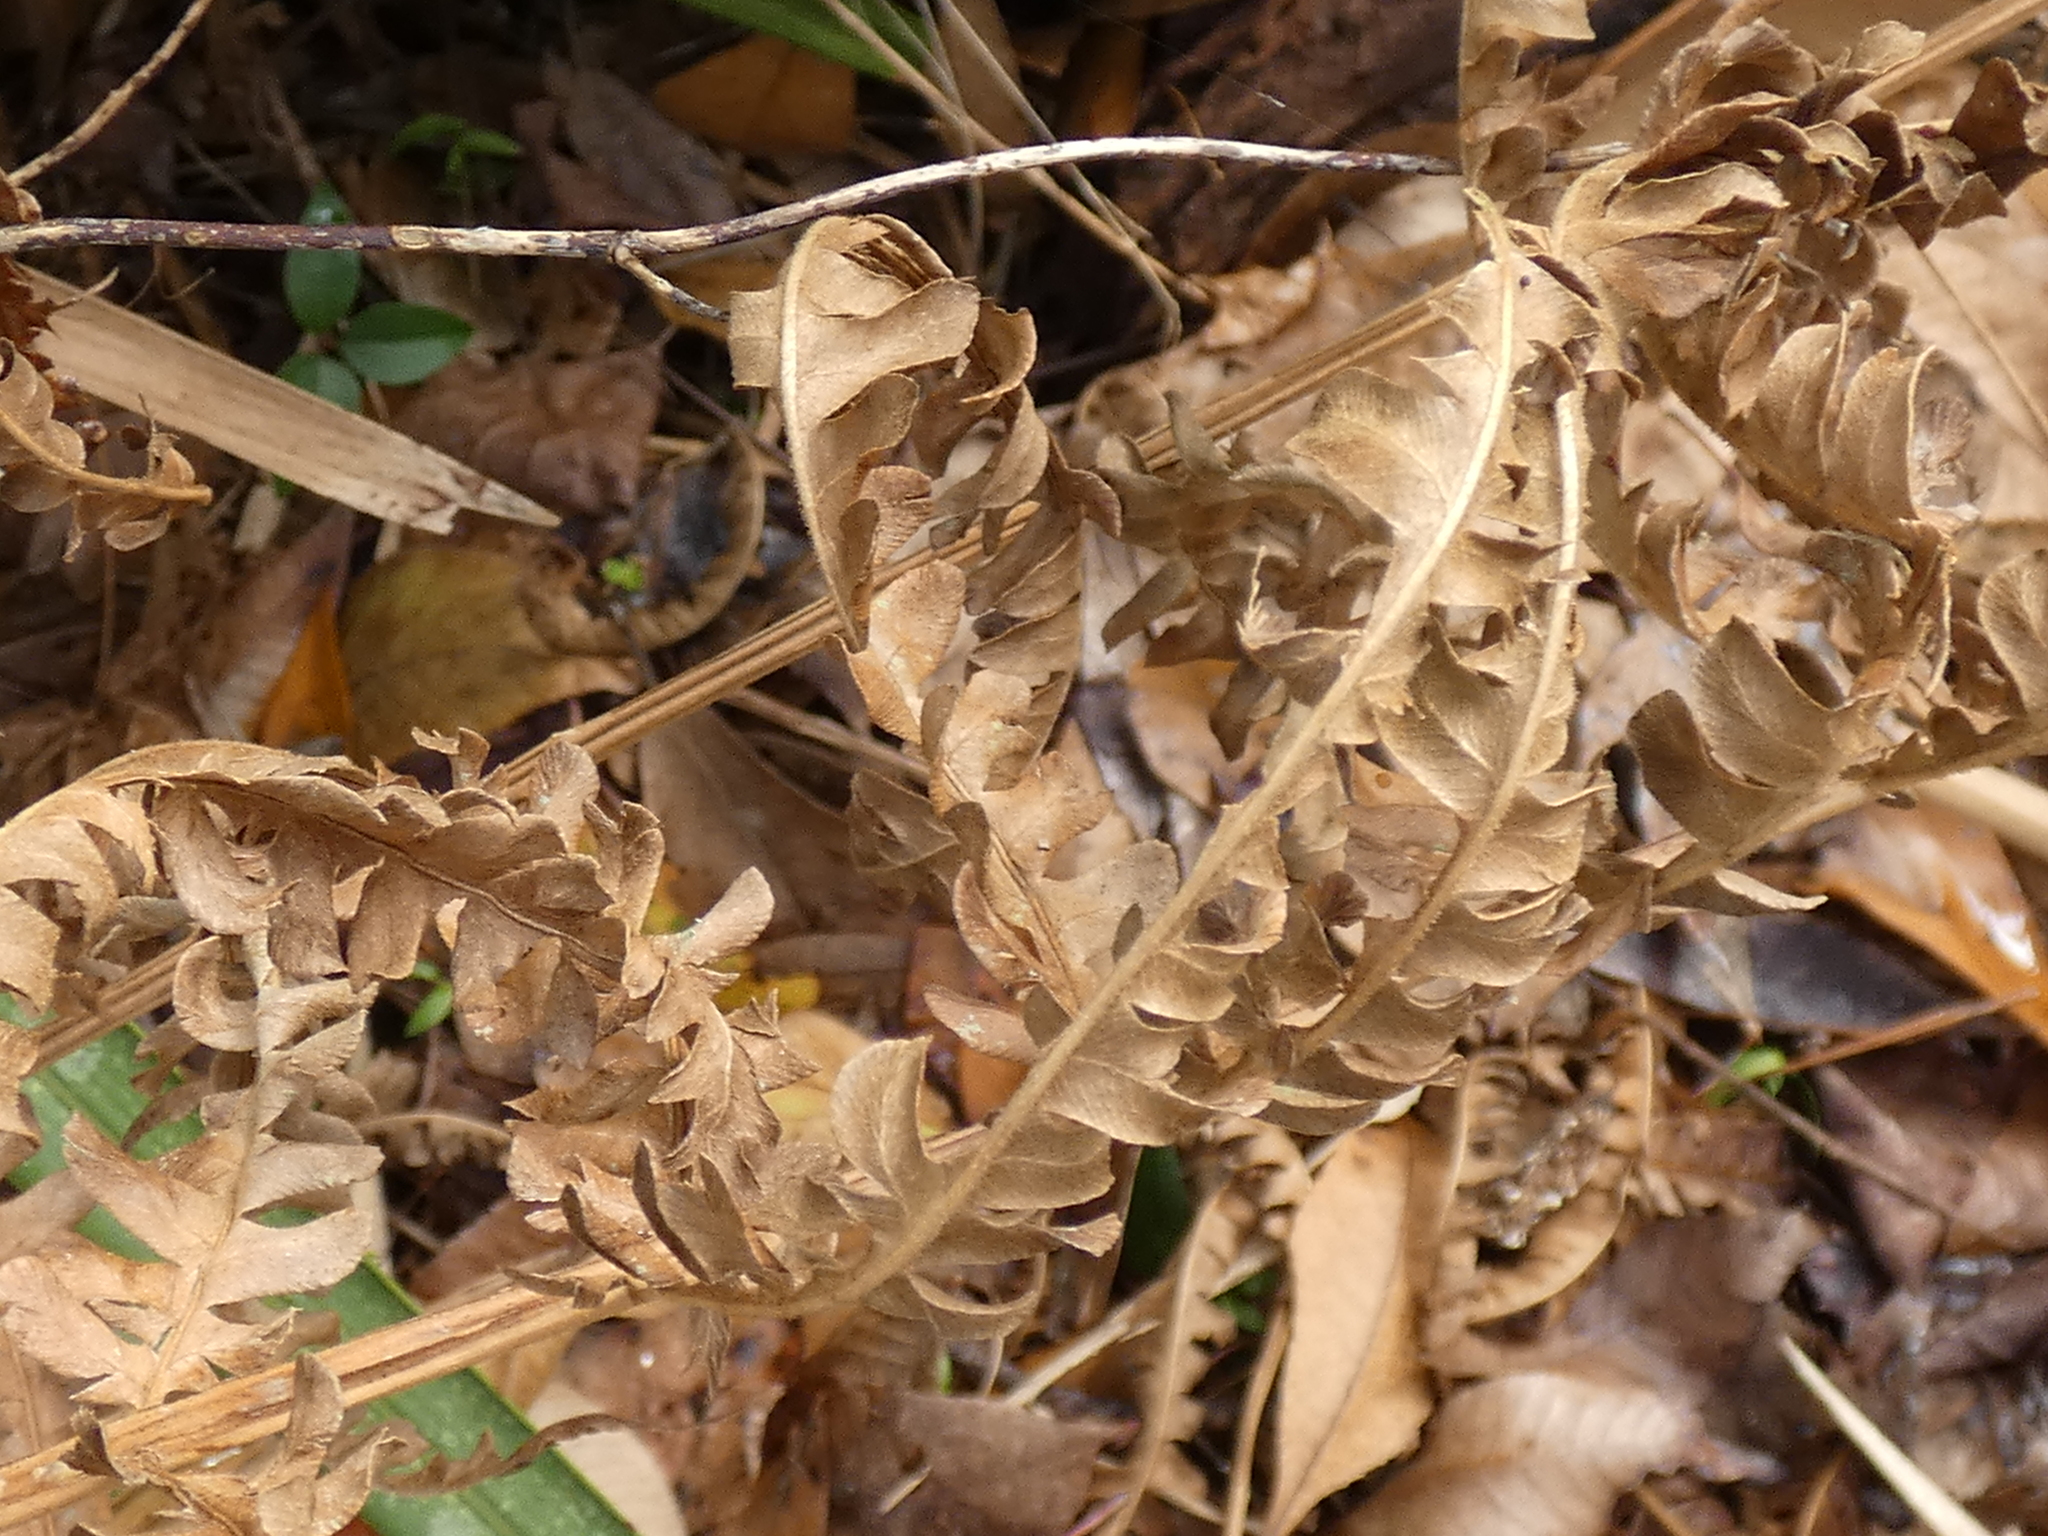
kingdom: Plantae
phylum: Tracheophyta
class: Polypodiopsida
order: Osmundales
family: Osmundaceae
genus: Osmundastrum
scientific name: Osmundastrum cinnamomeum
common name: Cinnamon fern
